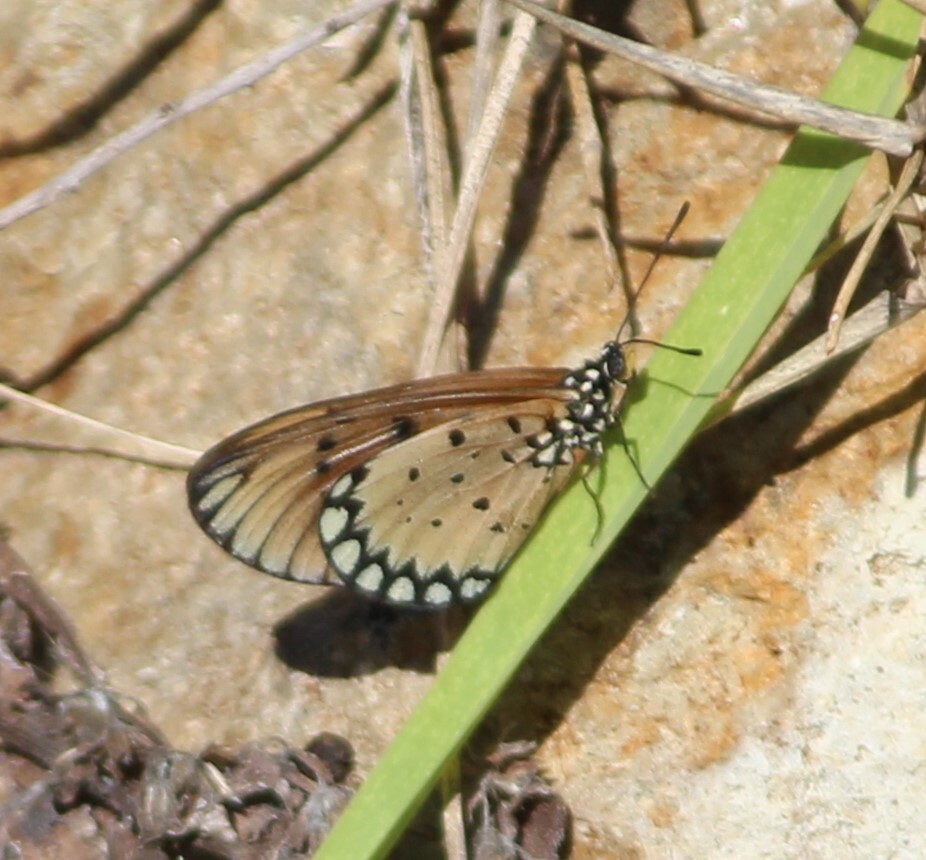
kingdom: Animalia
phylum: Arthropoda
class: Insecta
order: Lepidoptera
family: Nymphalidae
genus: Acraea
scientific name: Acraea terpsicore
